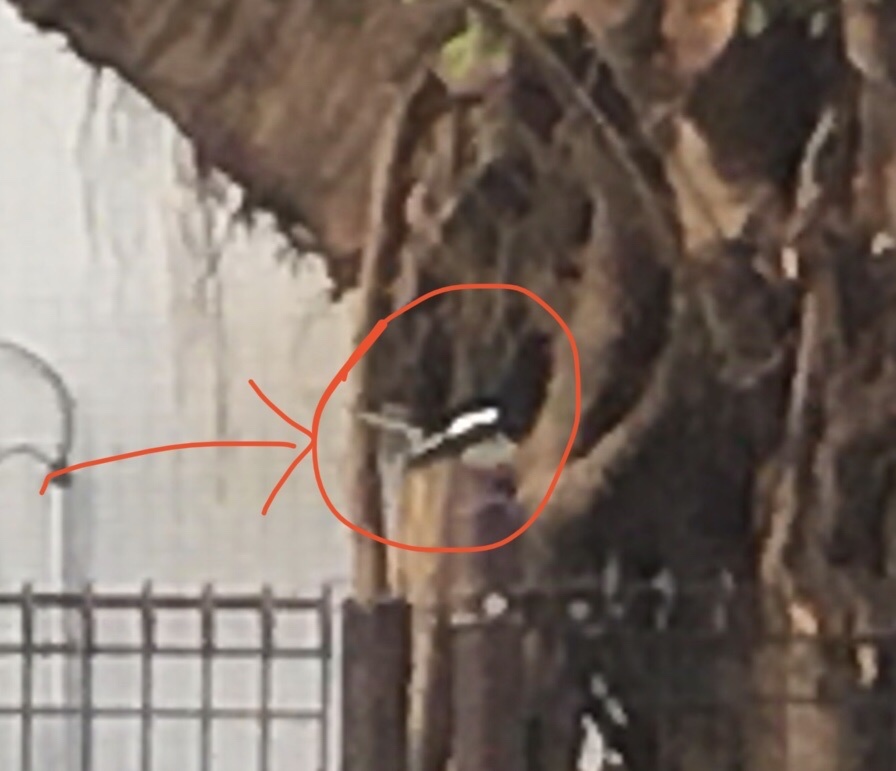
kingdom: Animalia
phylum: Chordata
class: Aves
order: Passeriformes
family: Muscicapidae
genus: Copsychus
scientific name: Copsychus saularis
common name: Oriental magpie-robin
